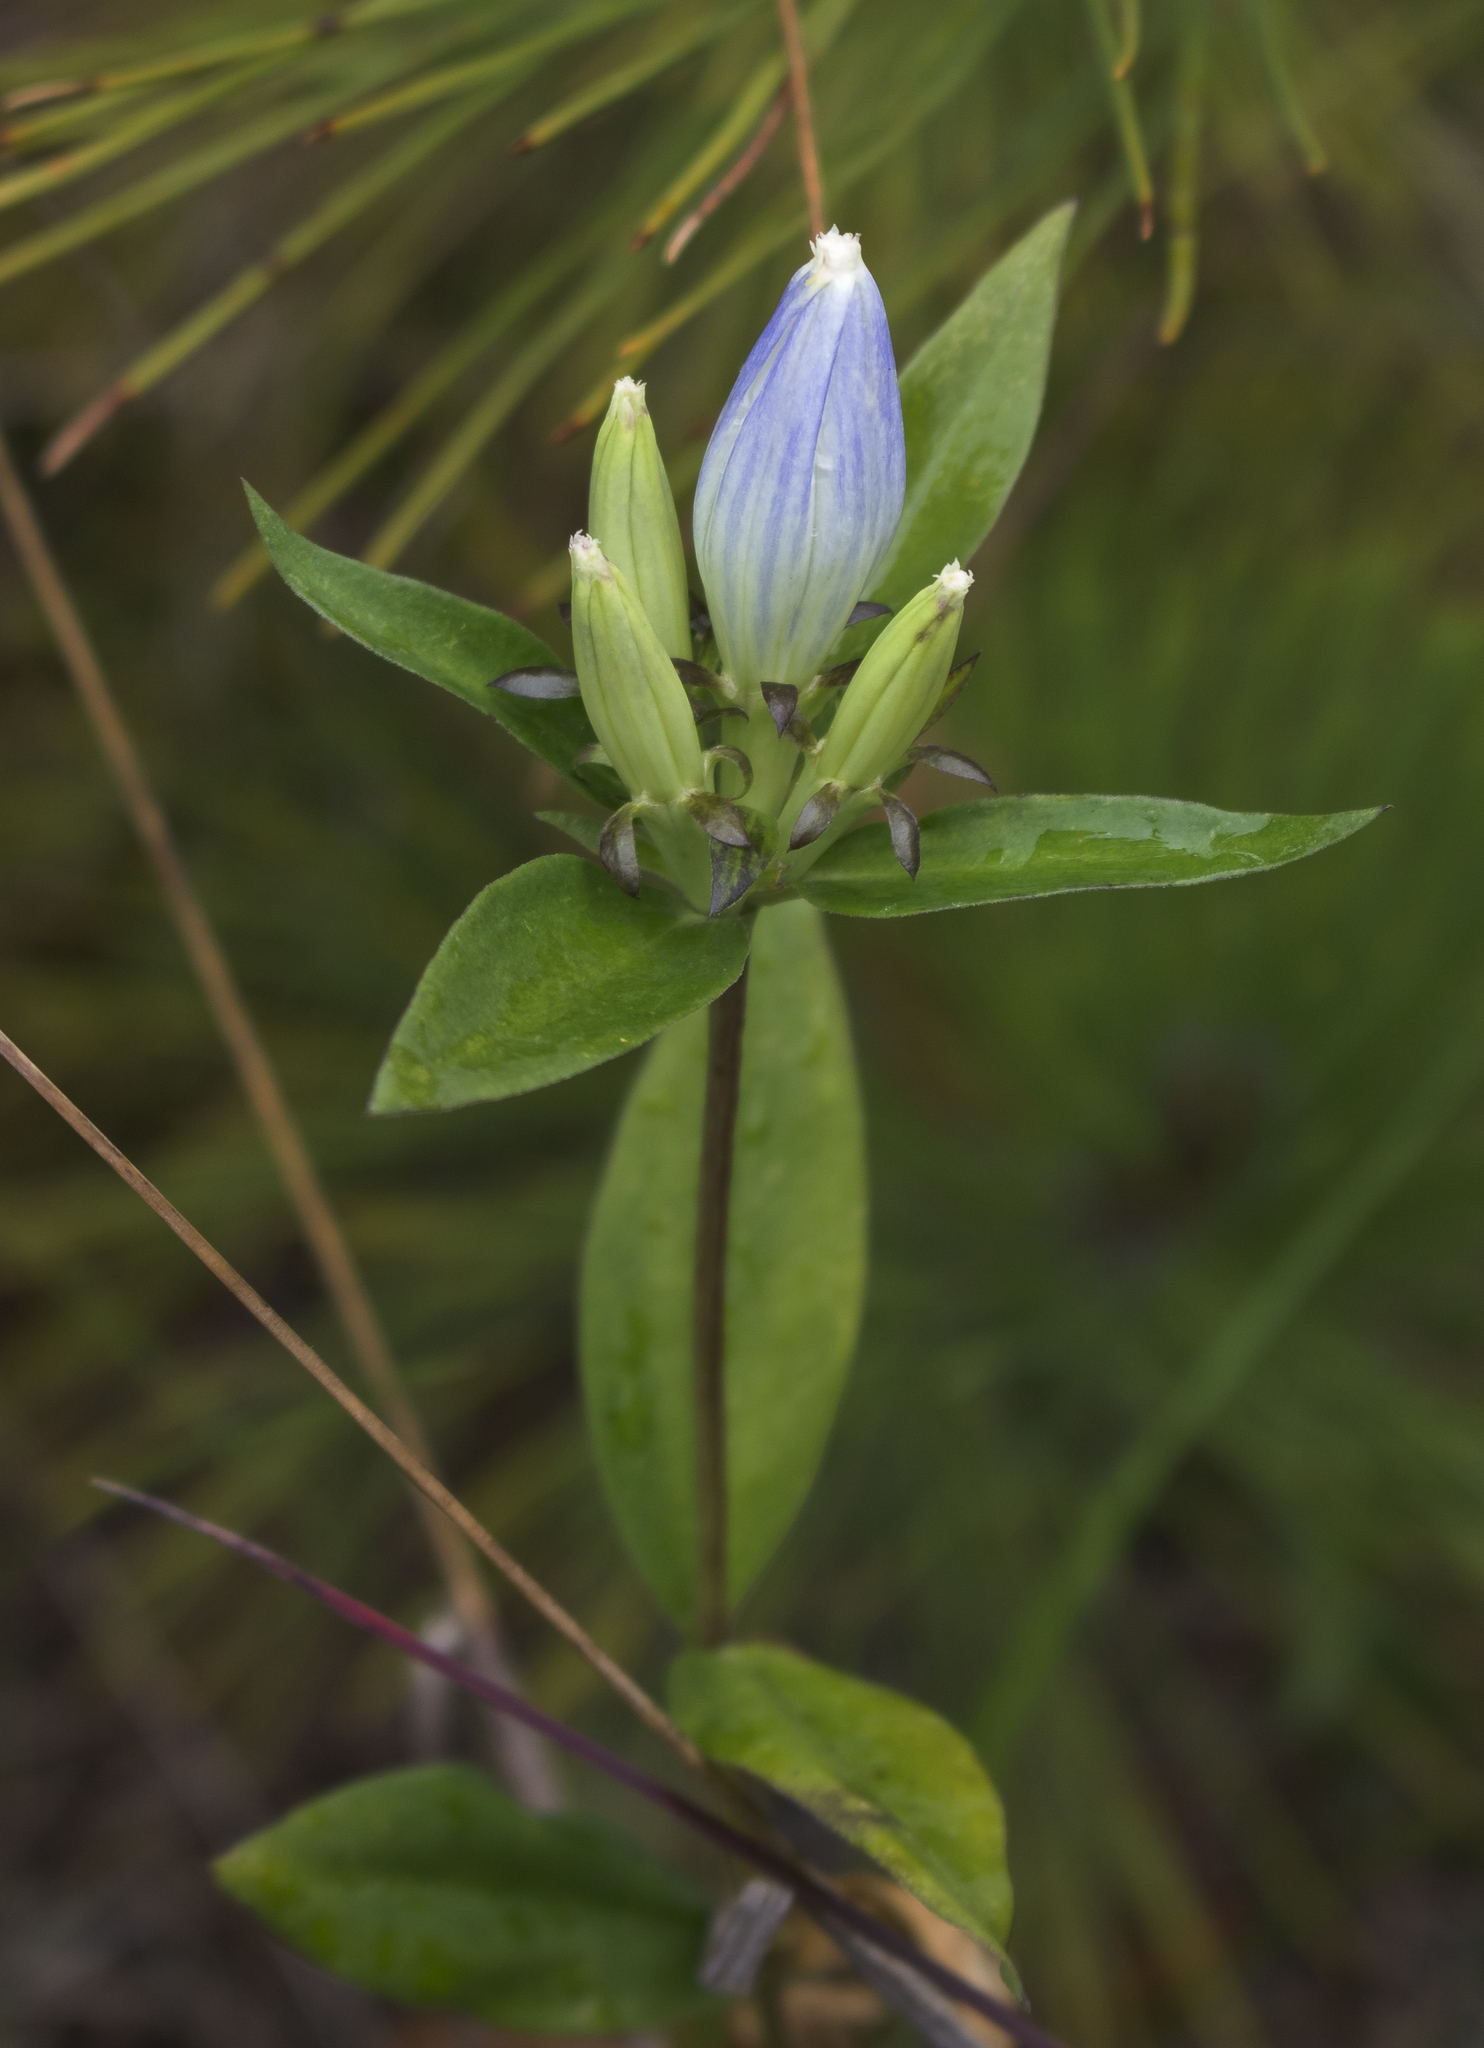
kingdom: Plantae
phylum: Tracheophyta
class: Magnoliopsida
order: Gentianales
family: Gentianaceae
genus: Gentiana
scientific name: Gentiana andrewsii
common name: Bottle gentian
